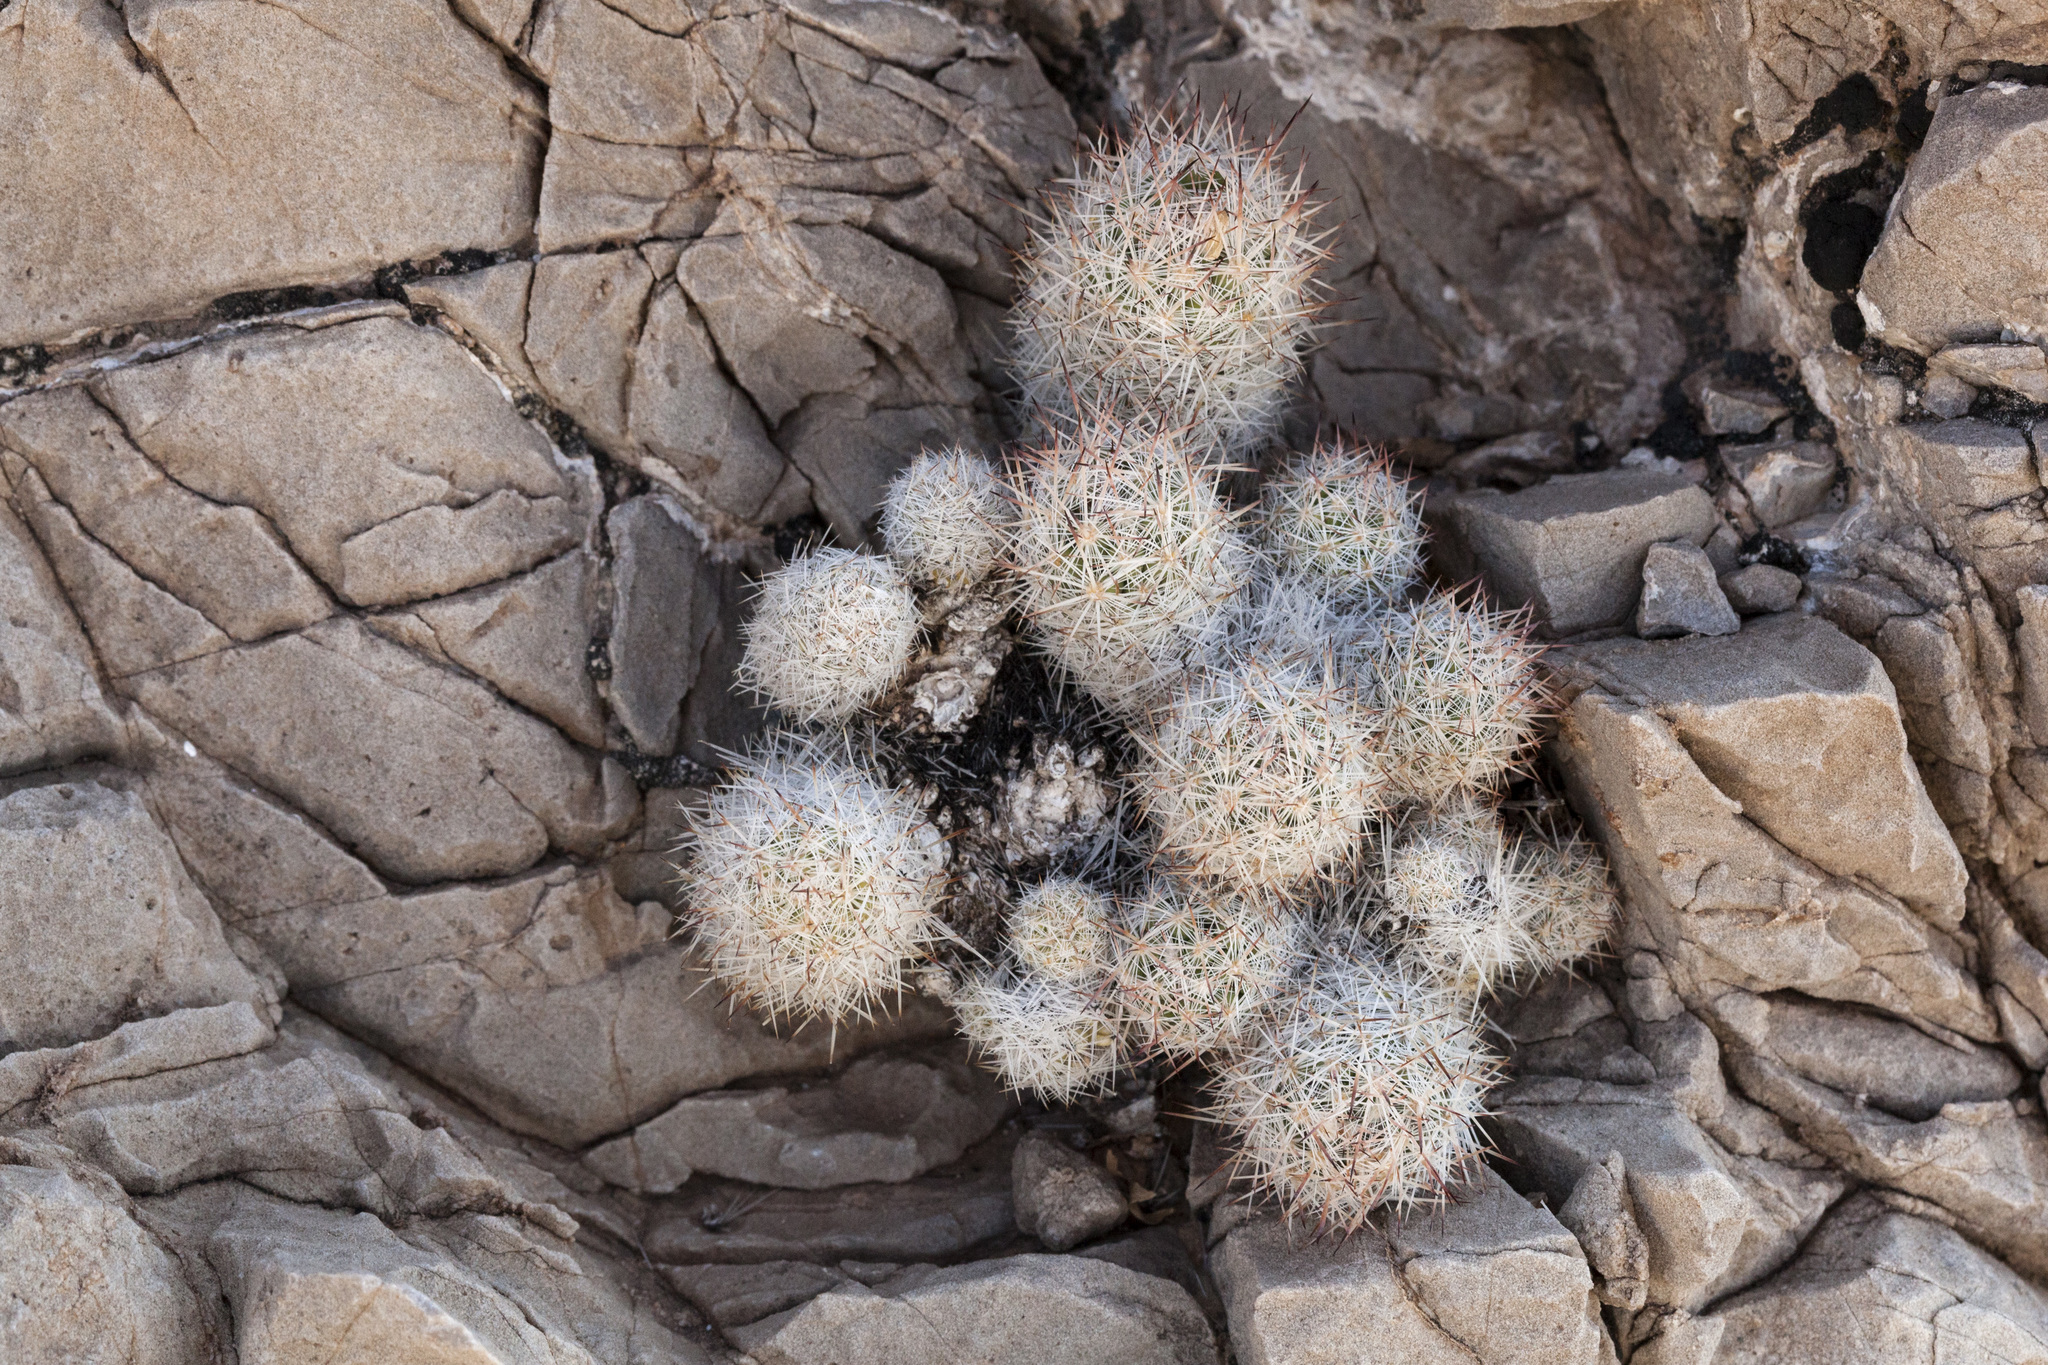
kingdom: Plantae
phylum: Tracheophyta
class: Magnoliopsida
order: Caryophyllales
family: Cactaceae
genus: Pelecyphora
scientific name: Pelecyphora sneedii
